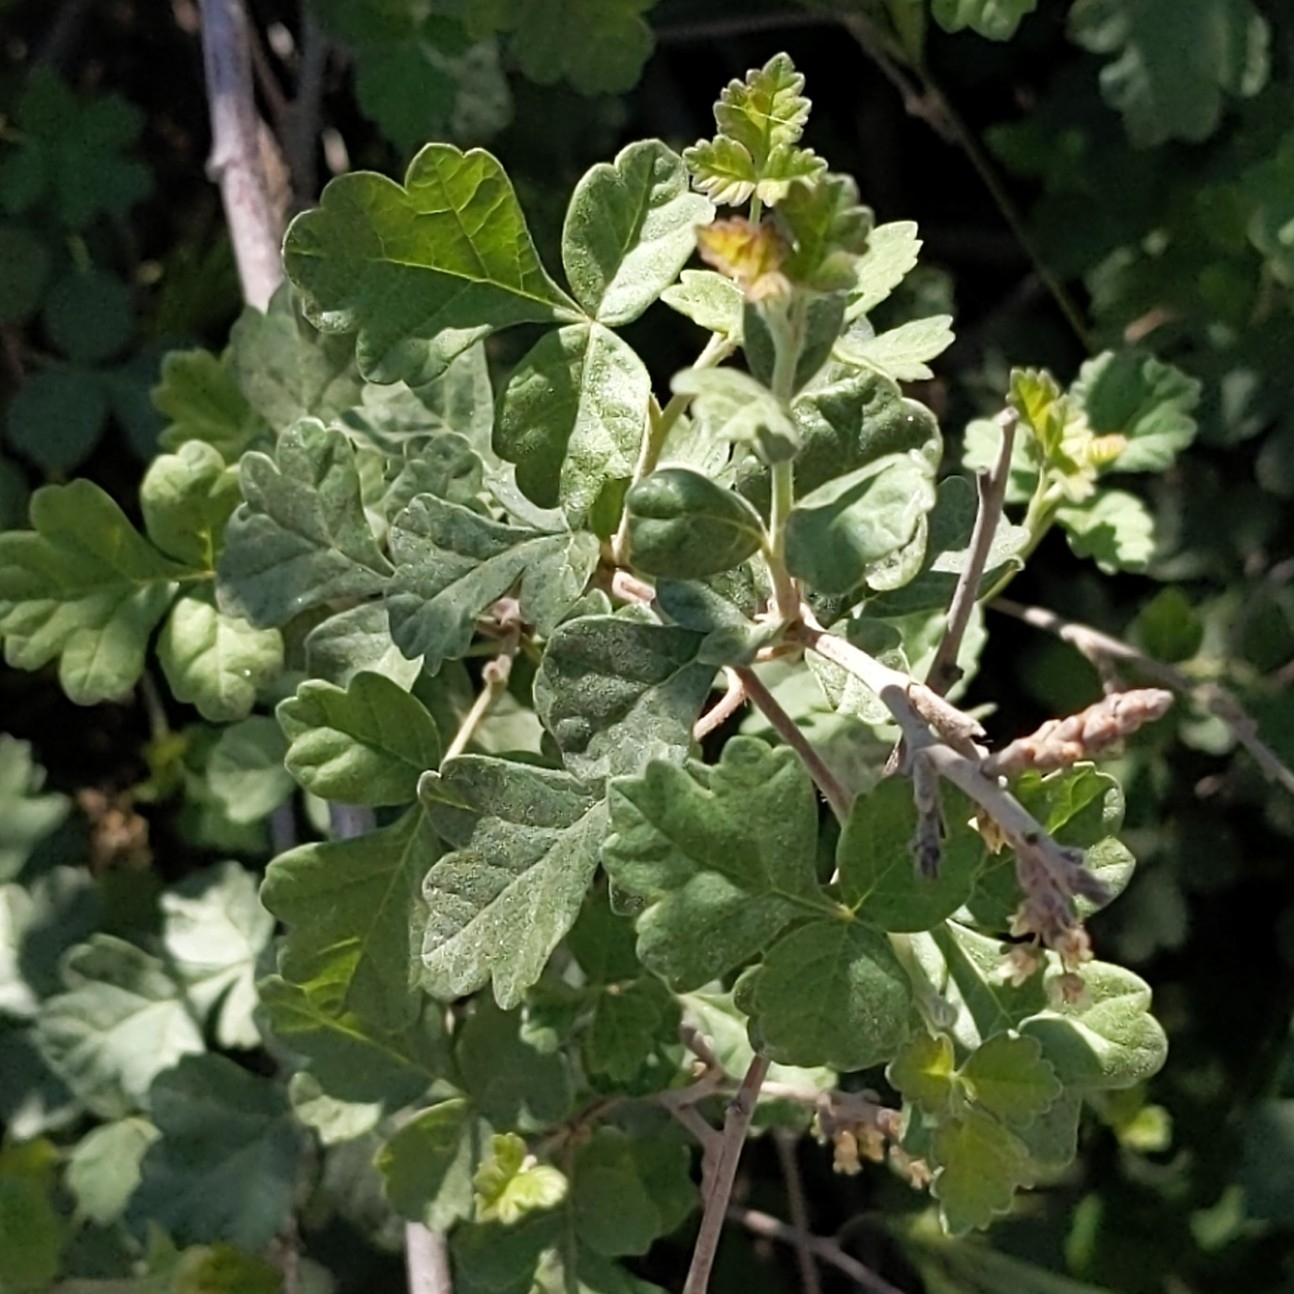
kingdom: Plantae
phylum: Tracheophyta
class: Magnoliopsida
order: Sapindales
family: Anacardiaceae
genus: Rhus
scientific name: Rhus aromatica
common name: Aromatic sumac
